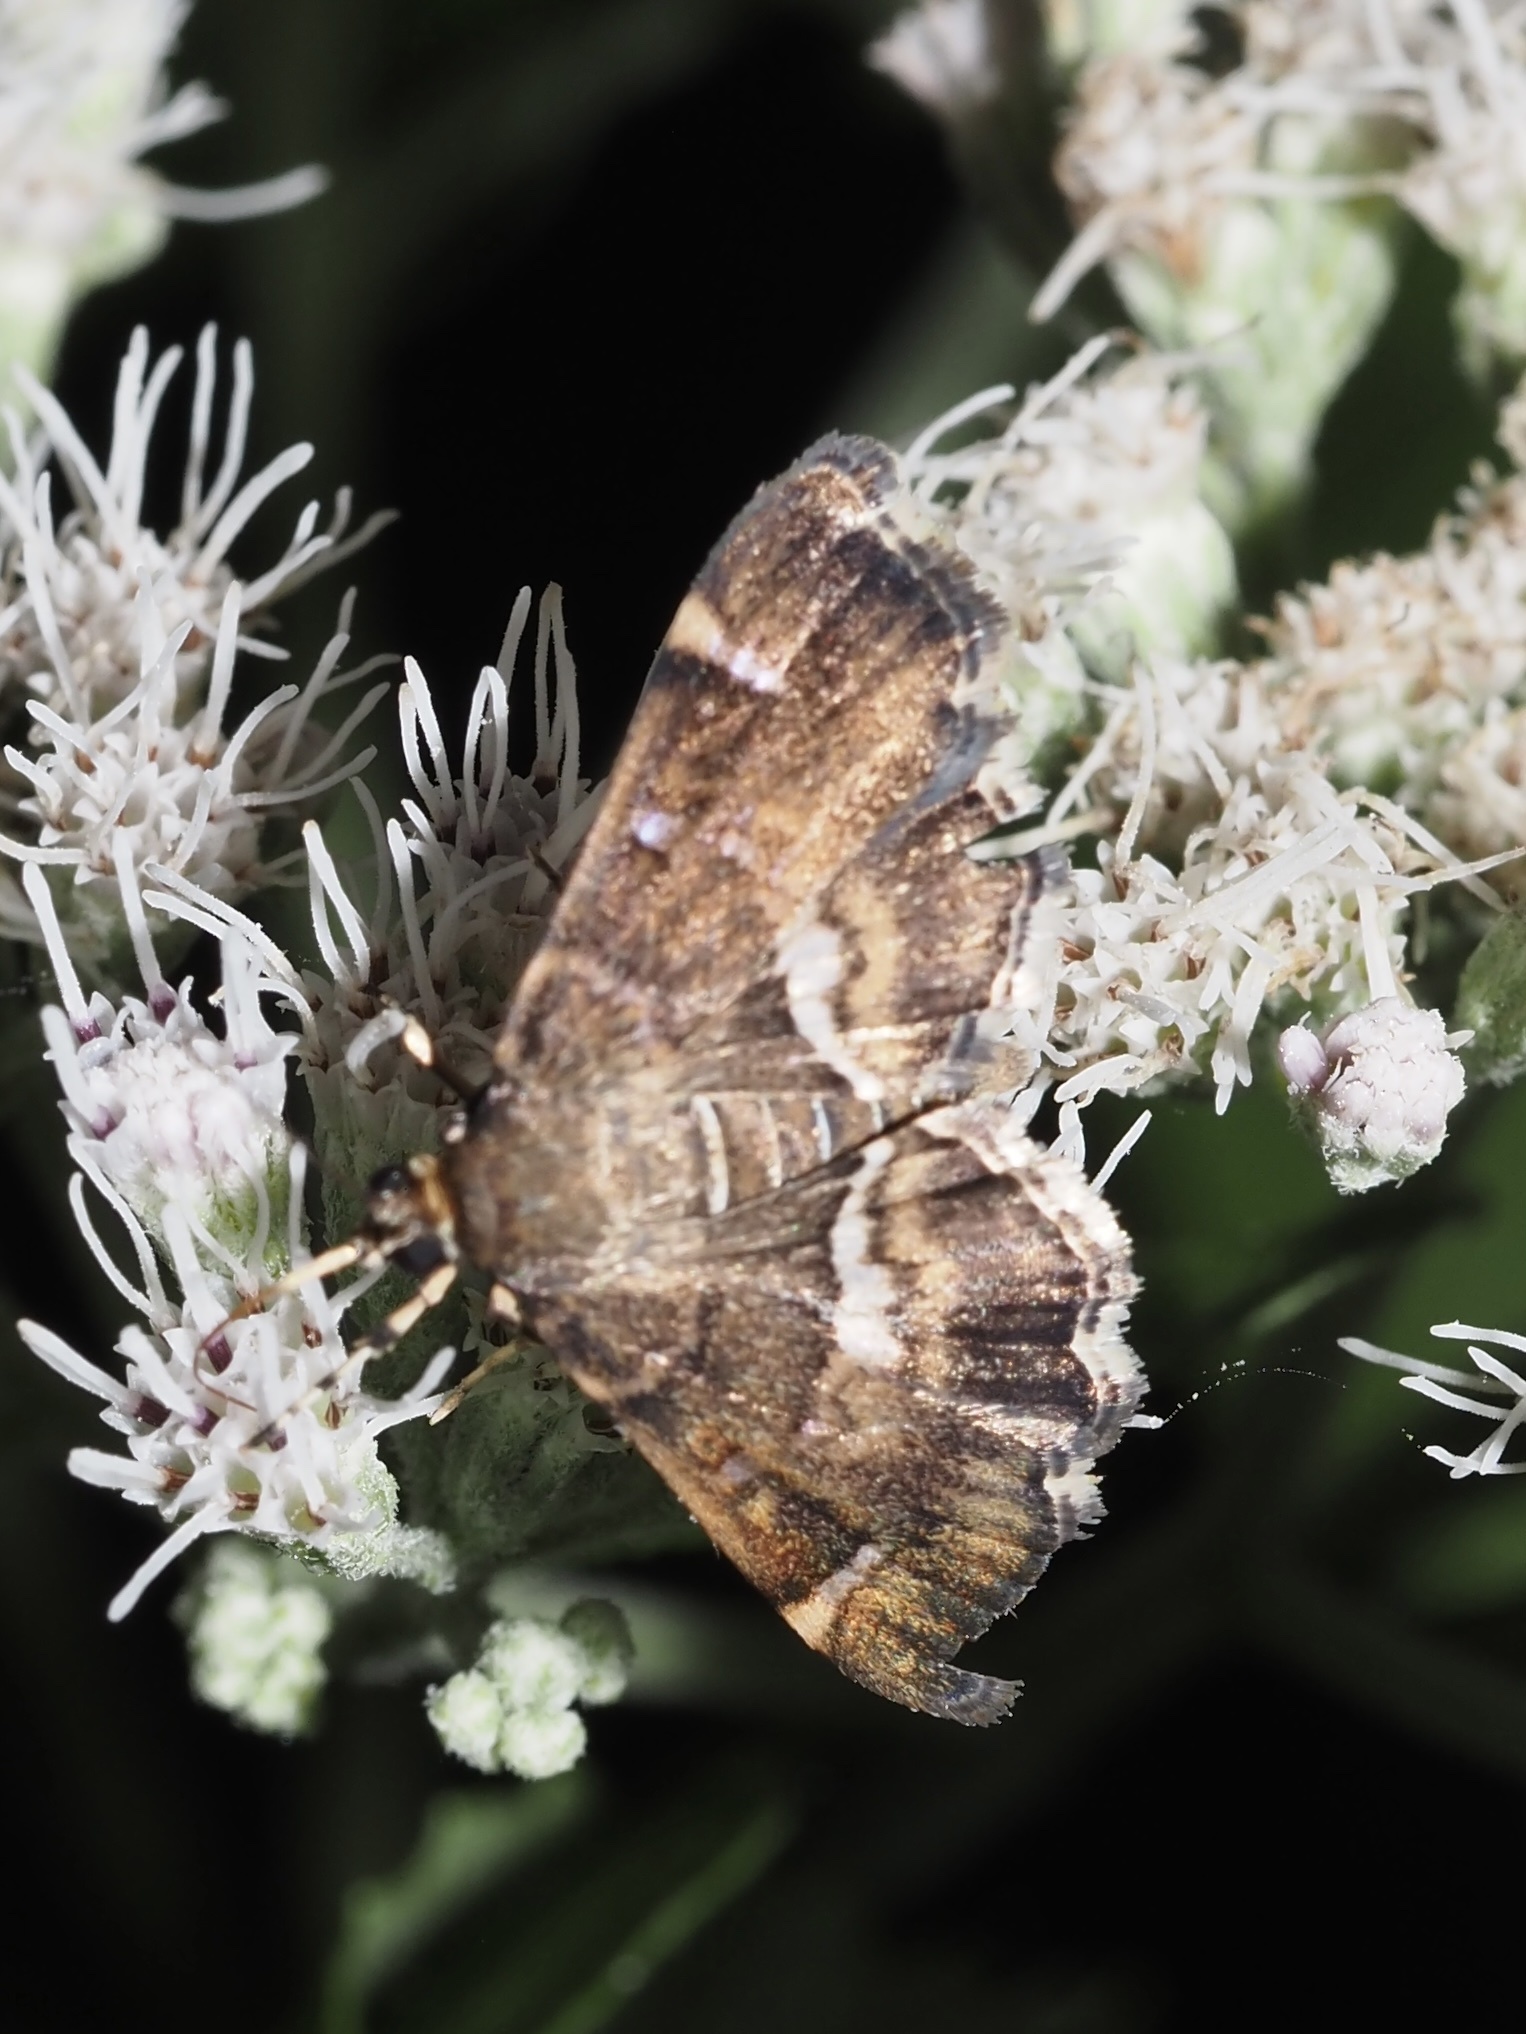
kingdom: Animalia
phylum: Arthropoda
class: Insecta
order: Lepidoptera
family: Crambidae
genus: Hymenia
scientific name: Hymenia perspectalis
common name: Spotted beet webworm
